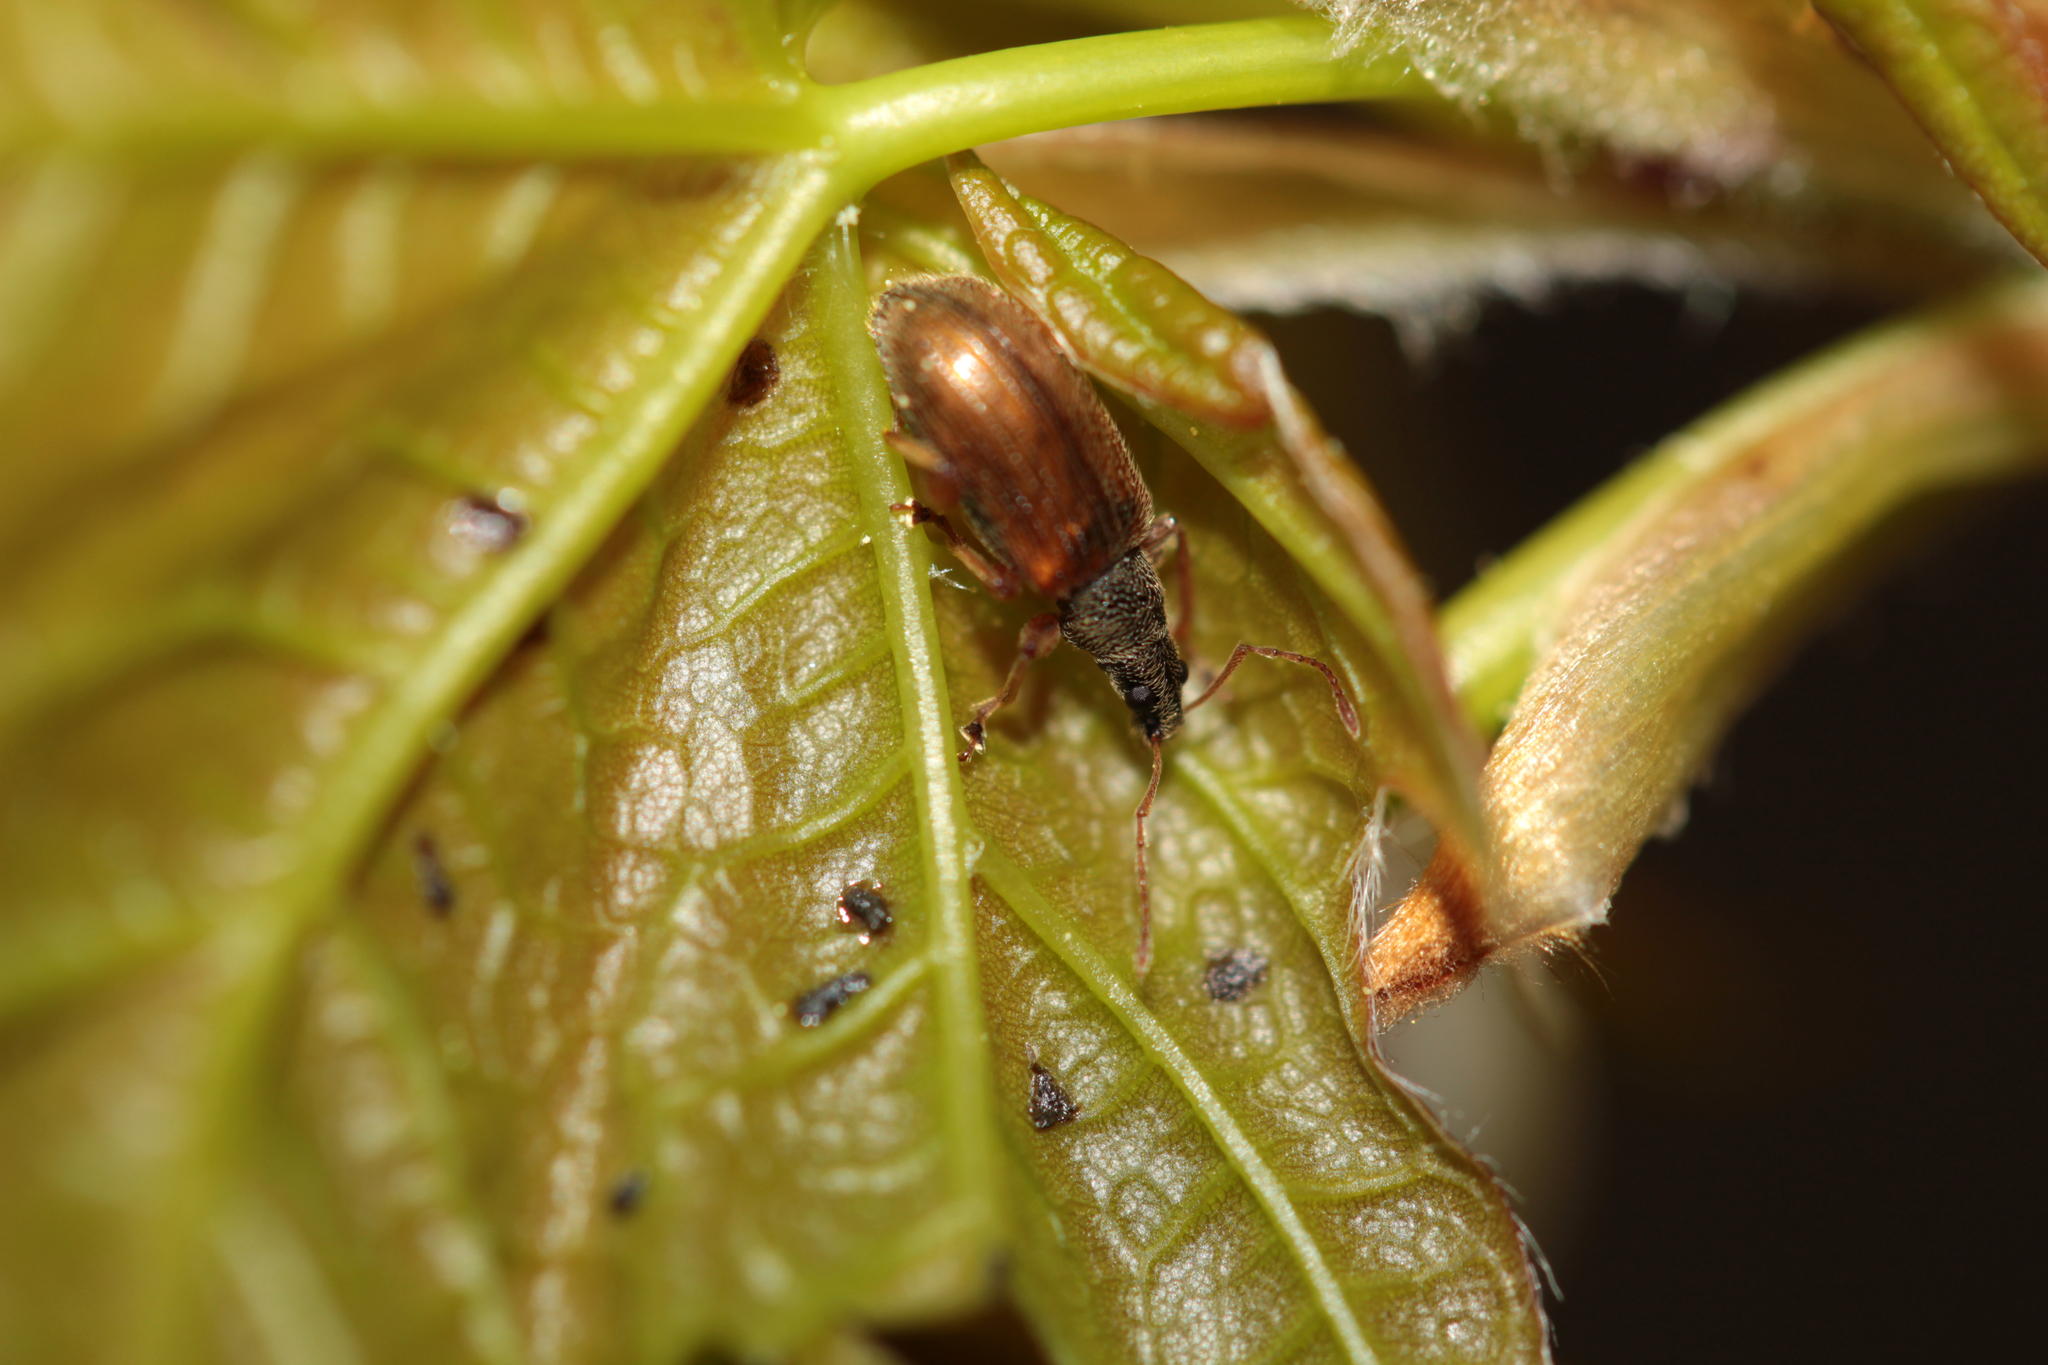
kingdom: Animalia
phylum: Arthropoda
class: Insecta
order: Coleoptera
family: Curculionidae
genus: Phyllobius
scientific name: Phyllobius oblongus
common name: Brown leaf weevil
